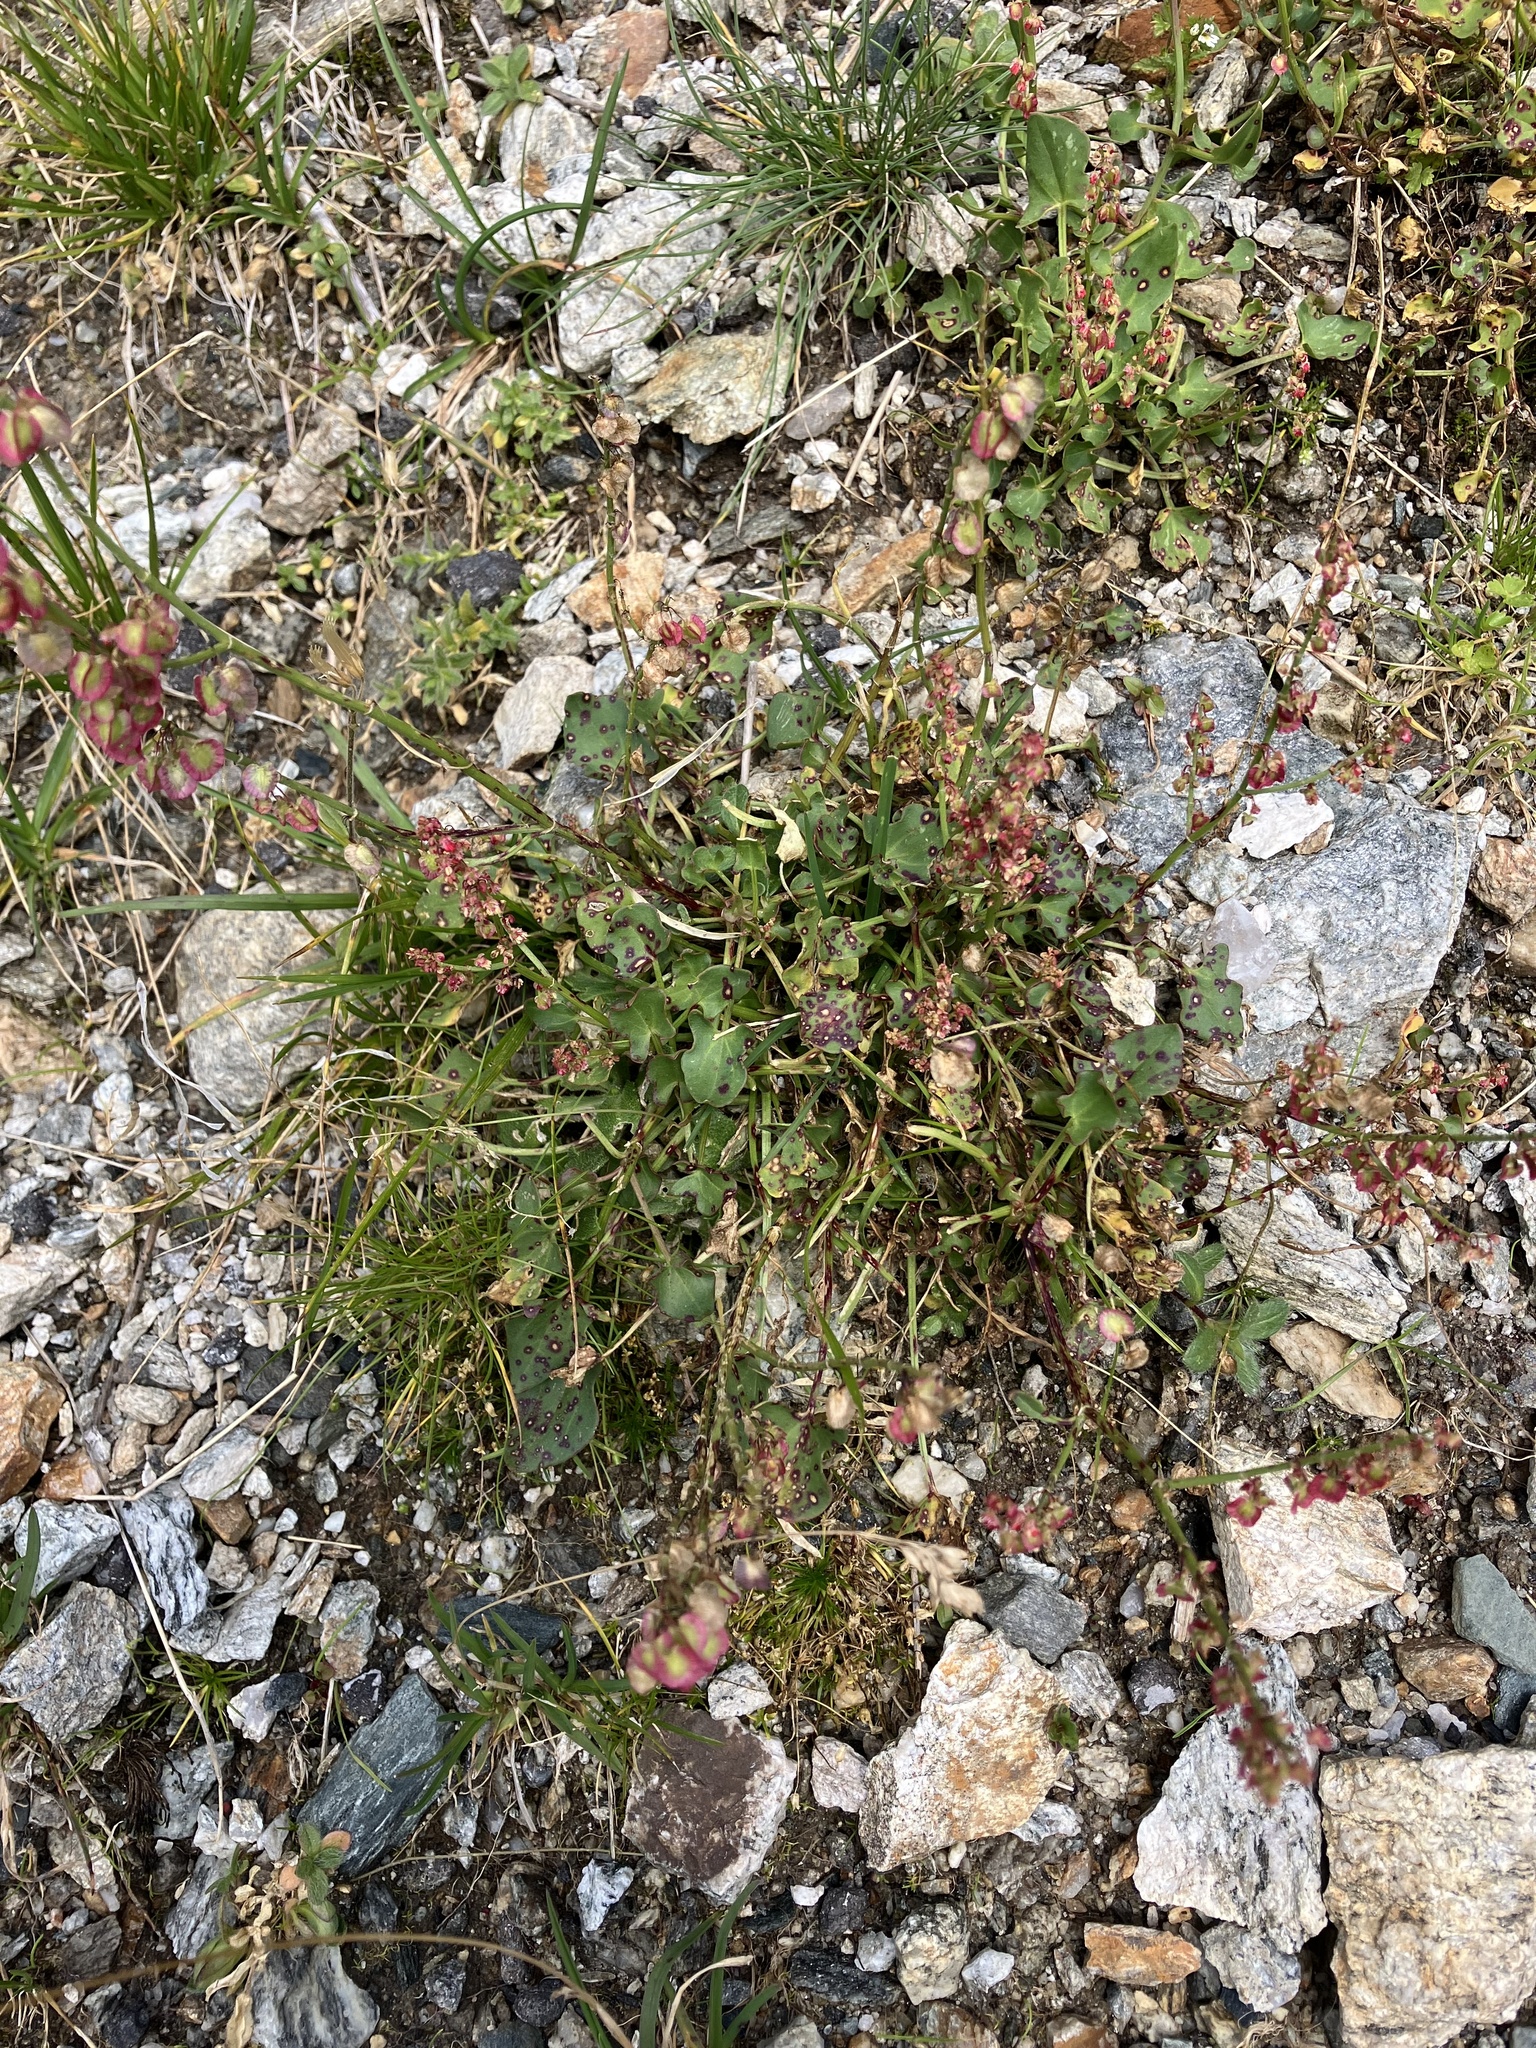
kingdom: Plantae
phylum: Tracheophyta
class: Magnoliopsida
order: Caryophyllales
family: Polygonaceae
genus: Rumex
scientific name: Rumex scutatus
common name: French sorrel
